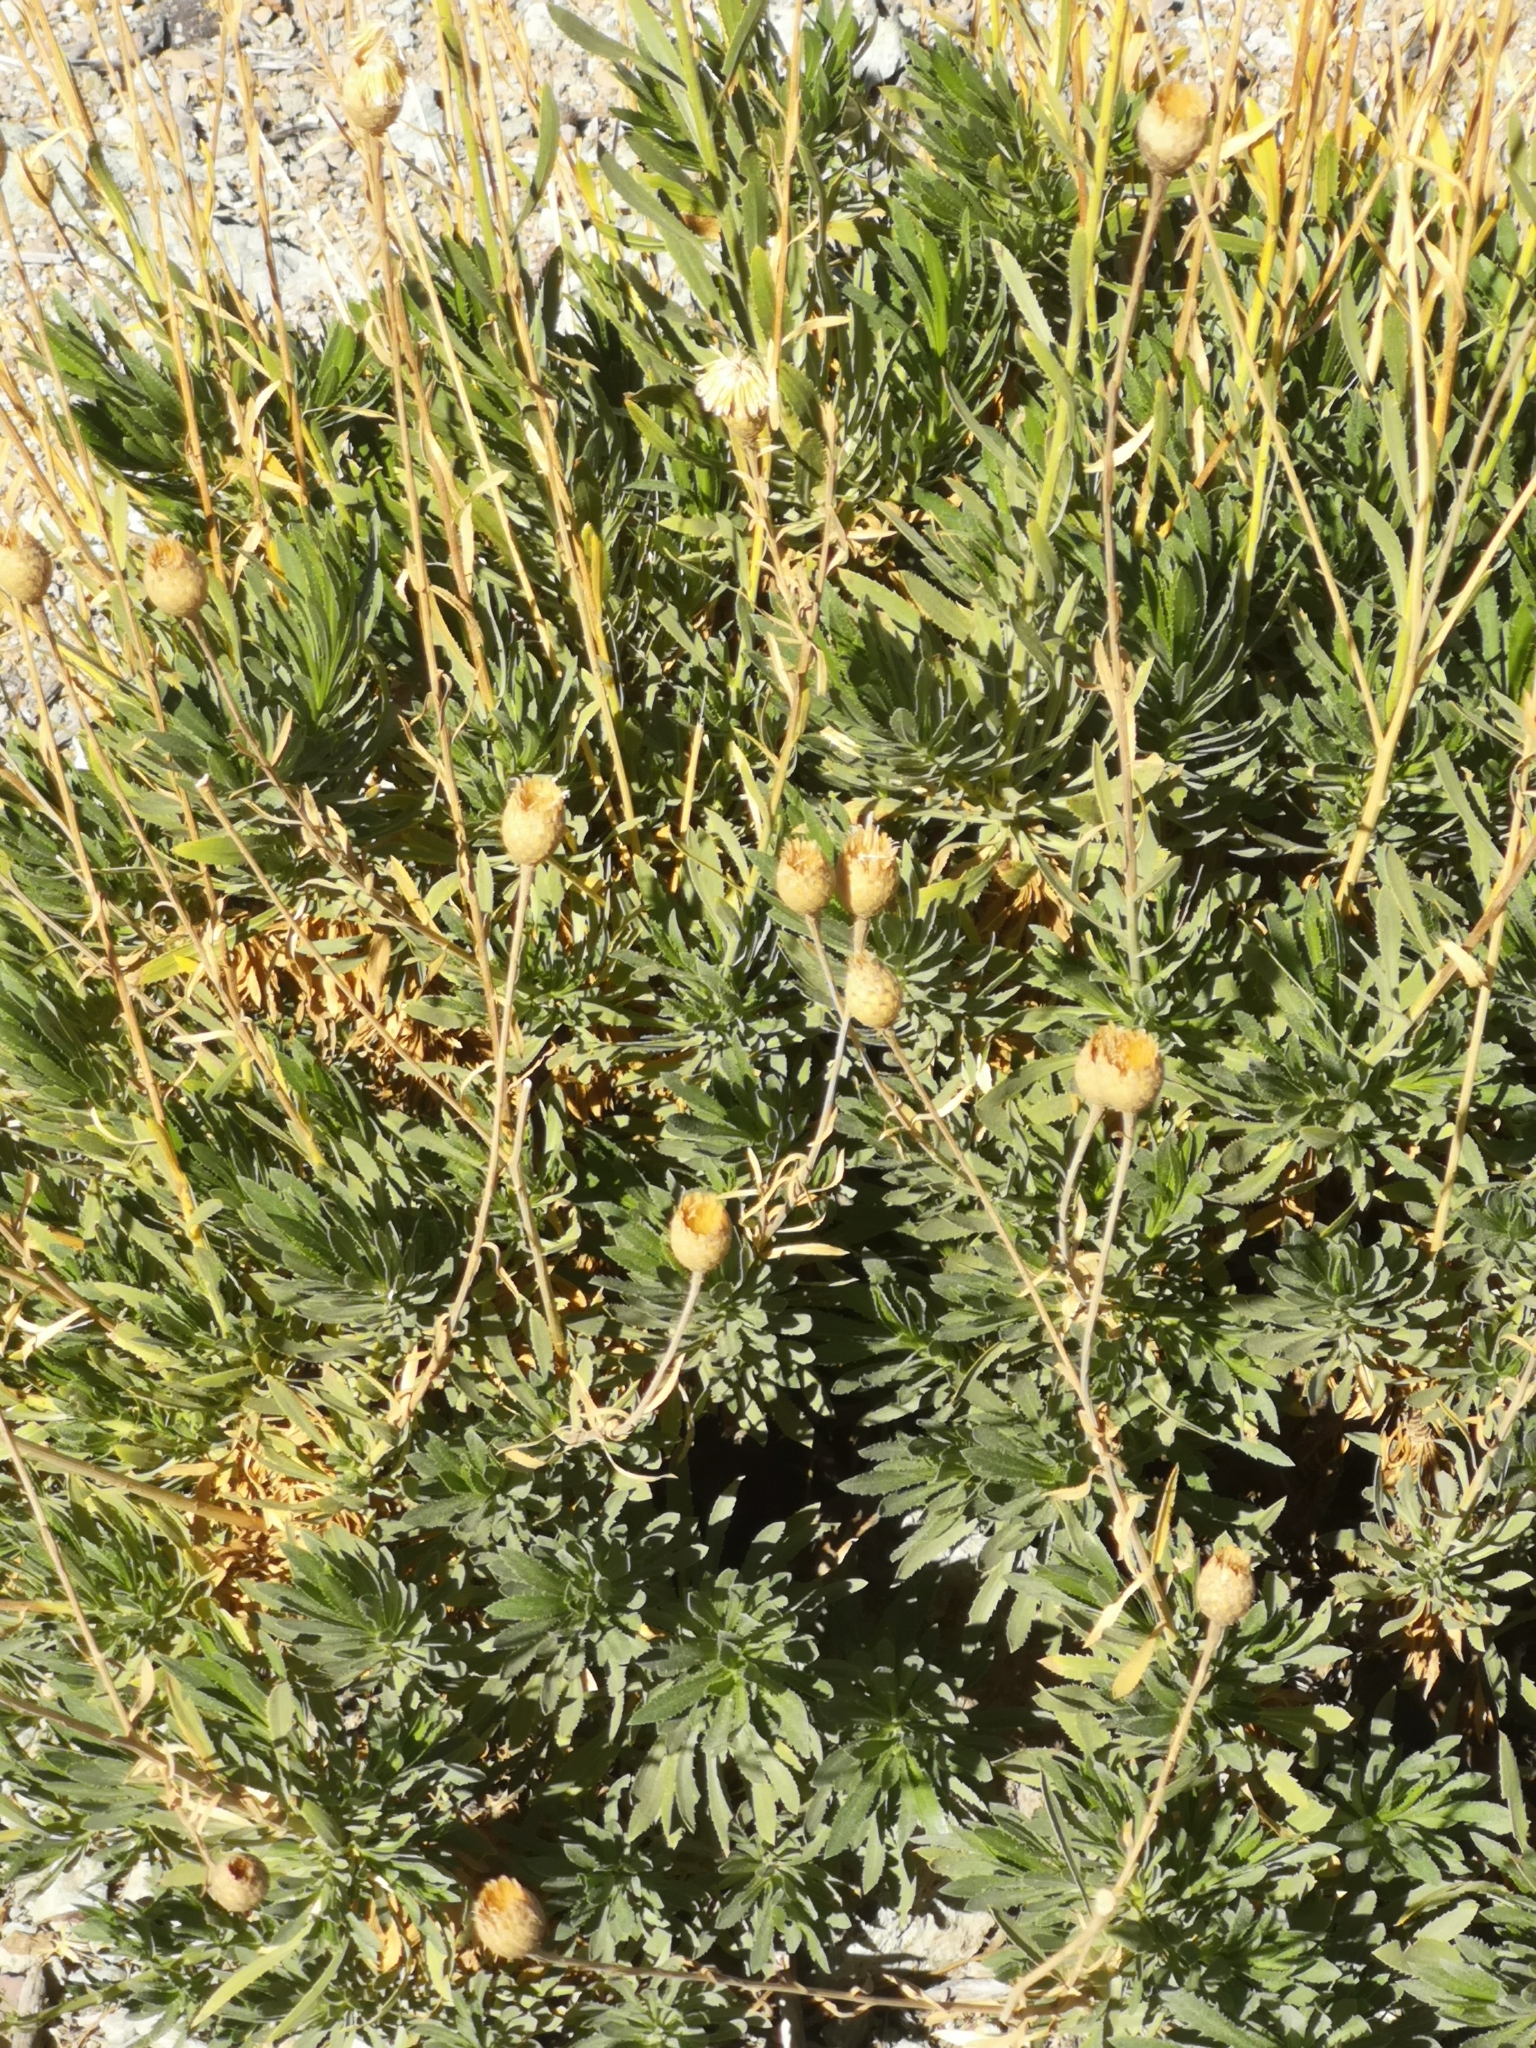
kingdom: Plantae
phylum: Tracheophyta
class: Magnoliopsida
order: Asterales
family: Asteraceae
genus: Cheirolophus
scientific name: Cheirolophus teydis
